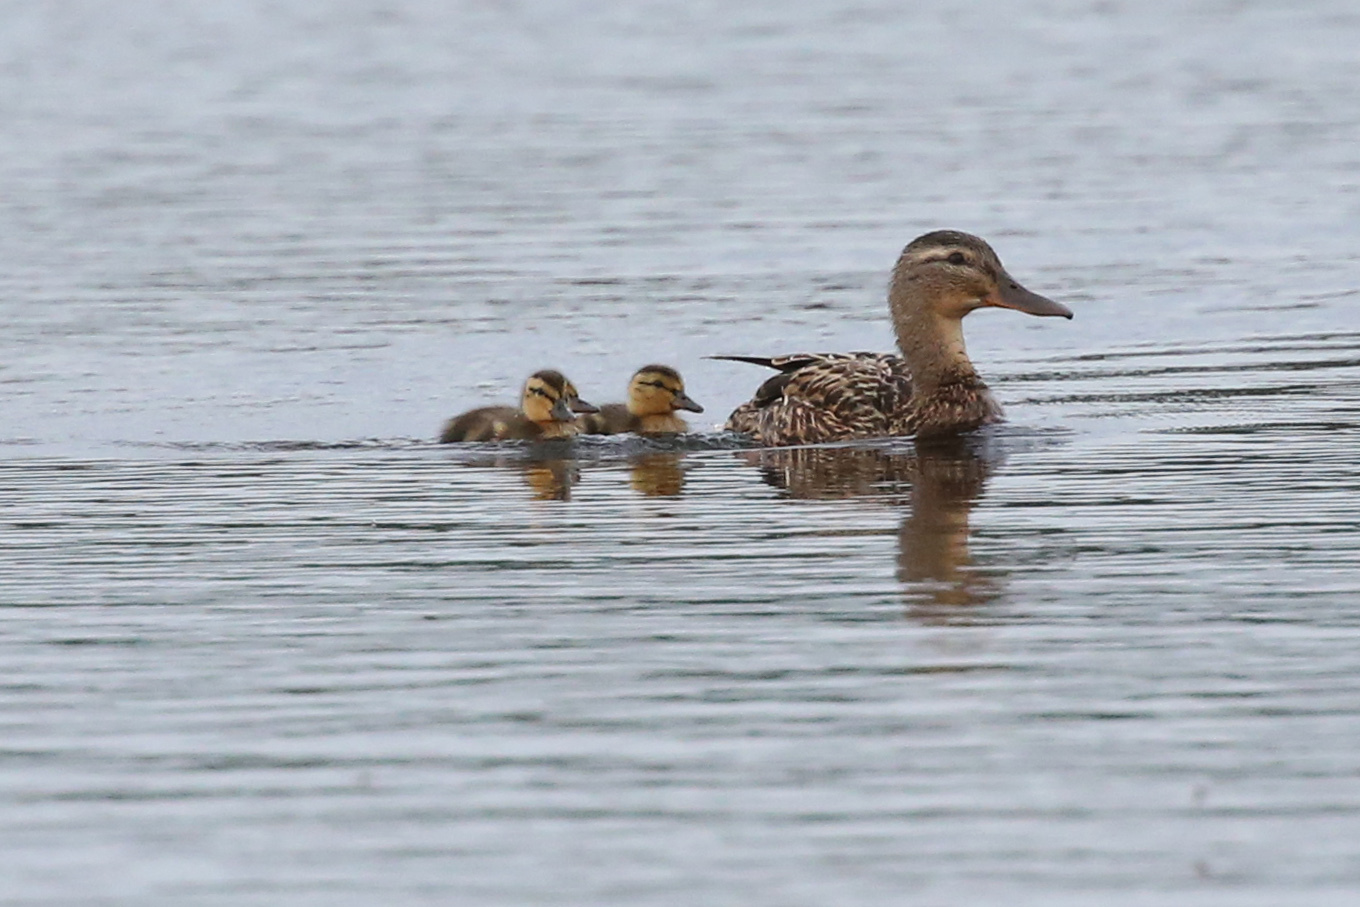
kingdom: Animalia
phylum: Chordata
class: Aves
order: Anseriformes
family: Anatidae
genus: Anas
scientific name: Anas platyrhynchos
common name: Mallard
